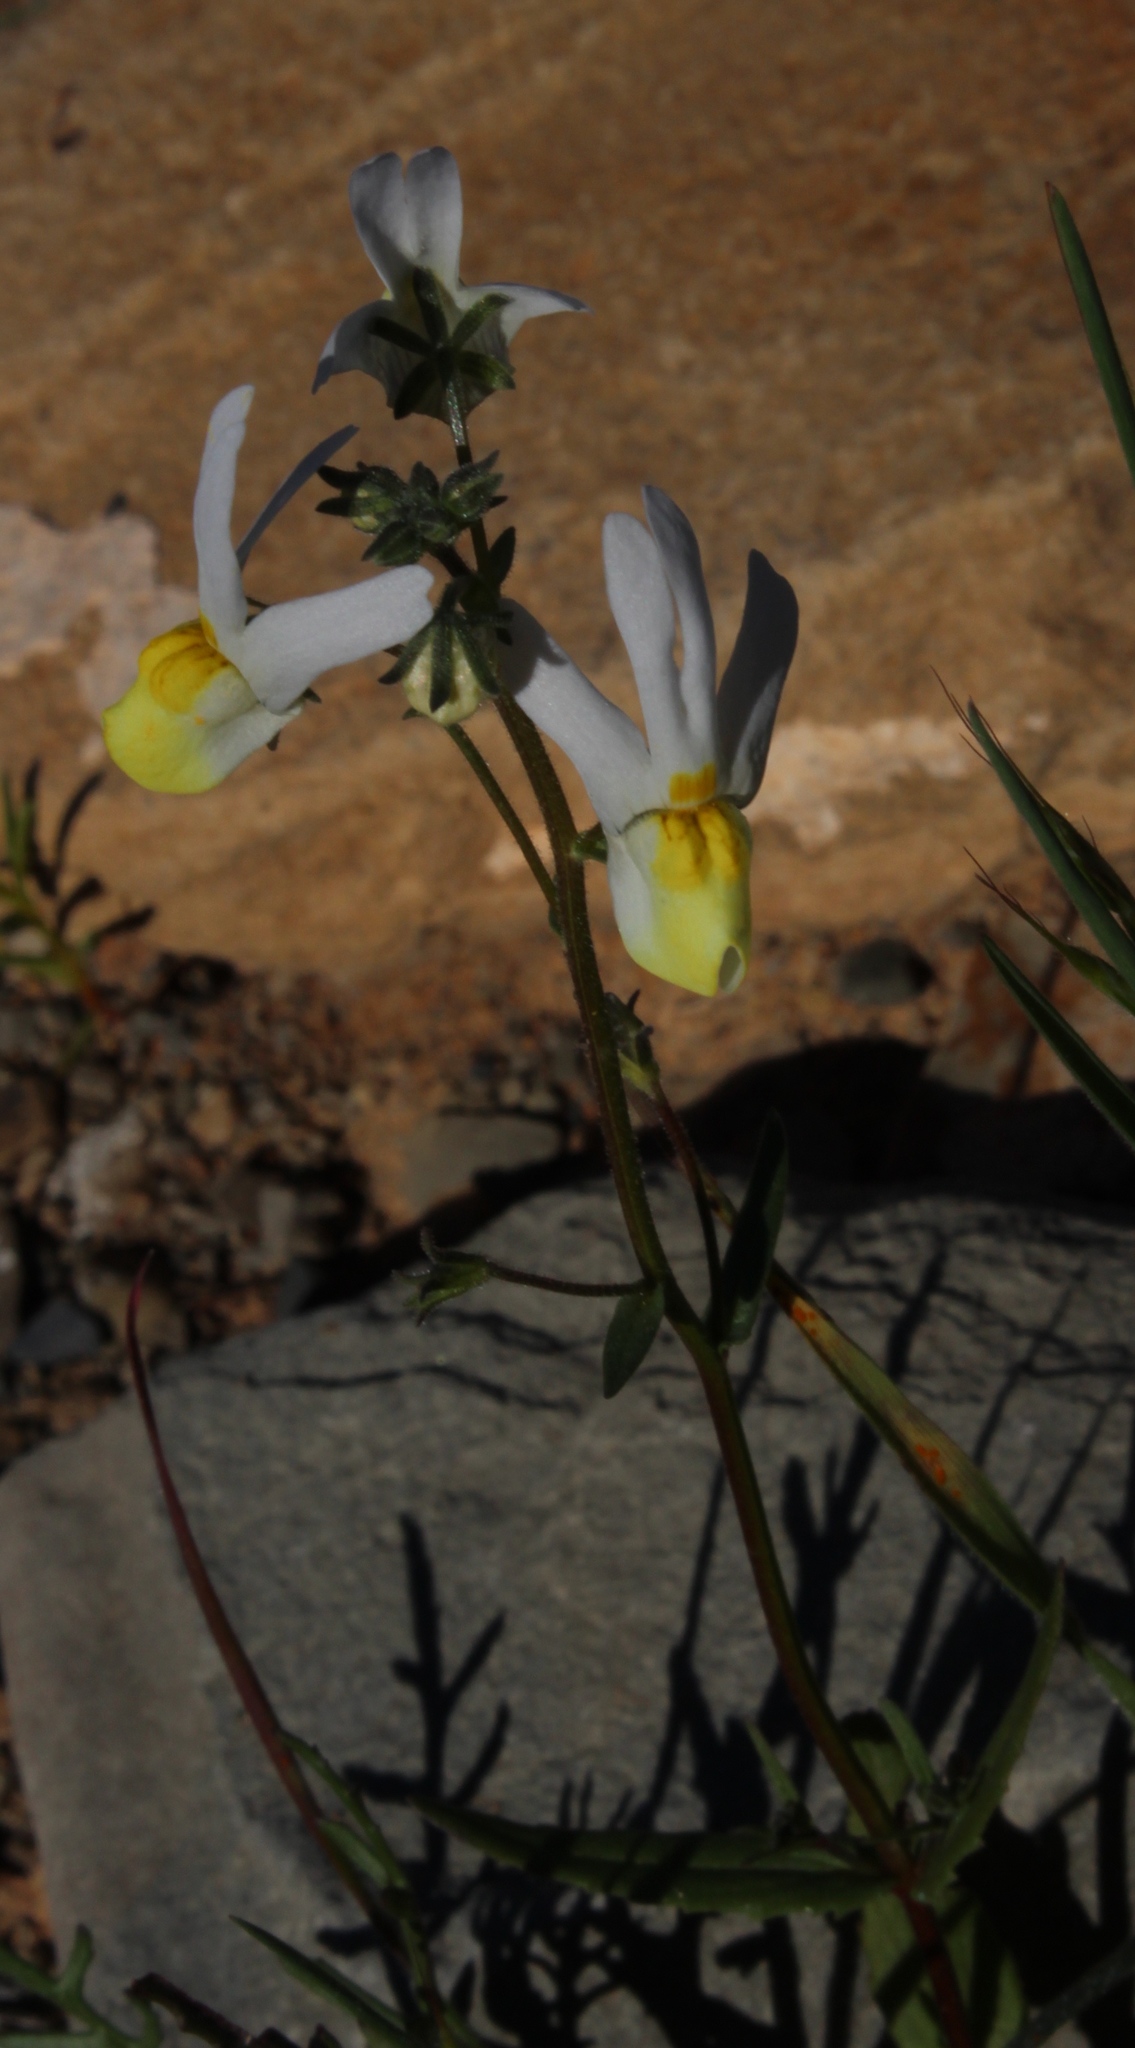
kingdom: Plantae
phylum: Tracheophyta
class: Magnoliopsida
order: Lamiales
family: Scrophulariaceae
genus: Nemesia
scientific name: Nemesia anisocarpa
